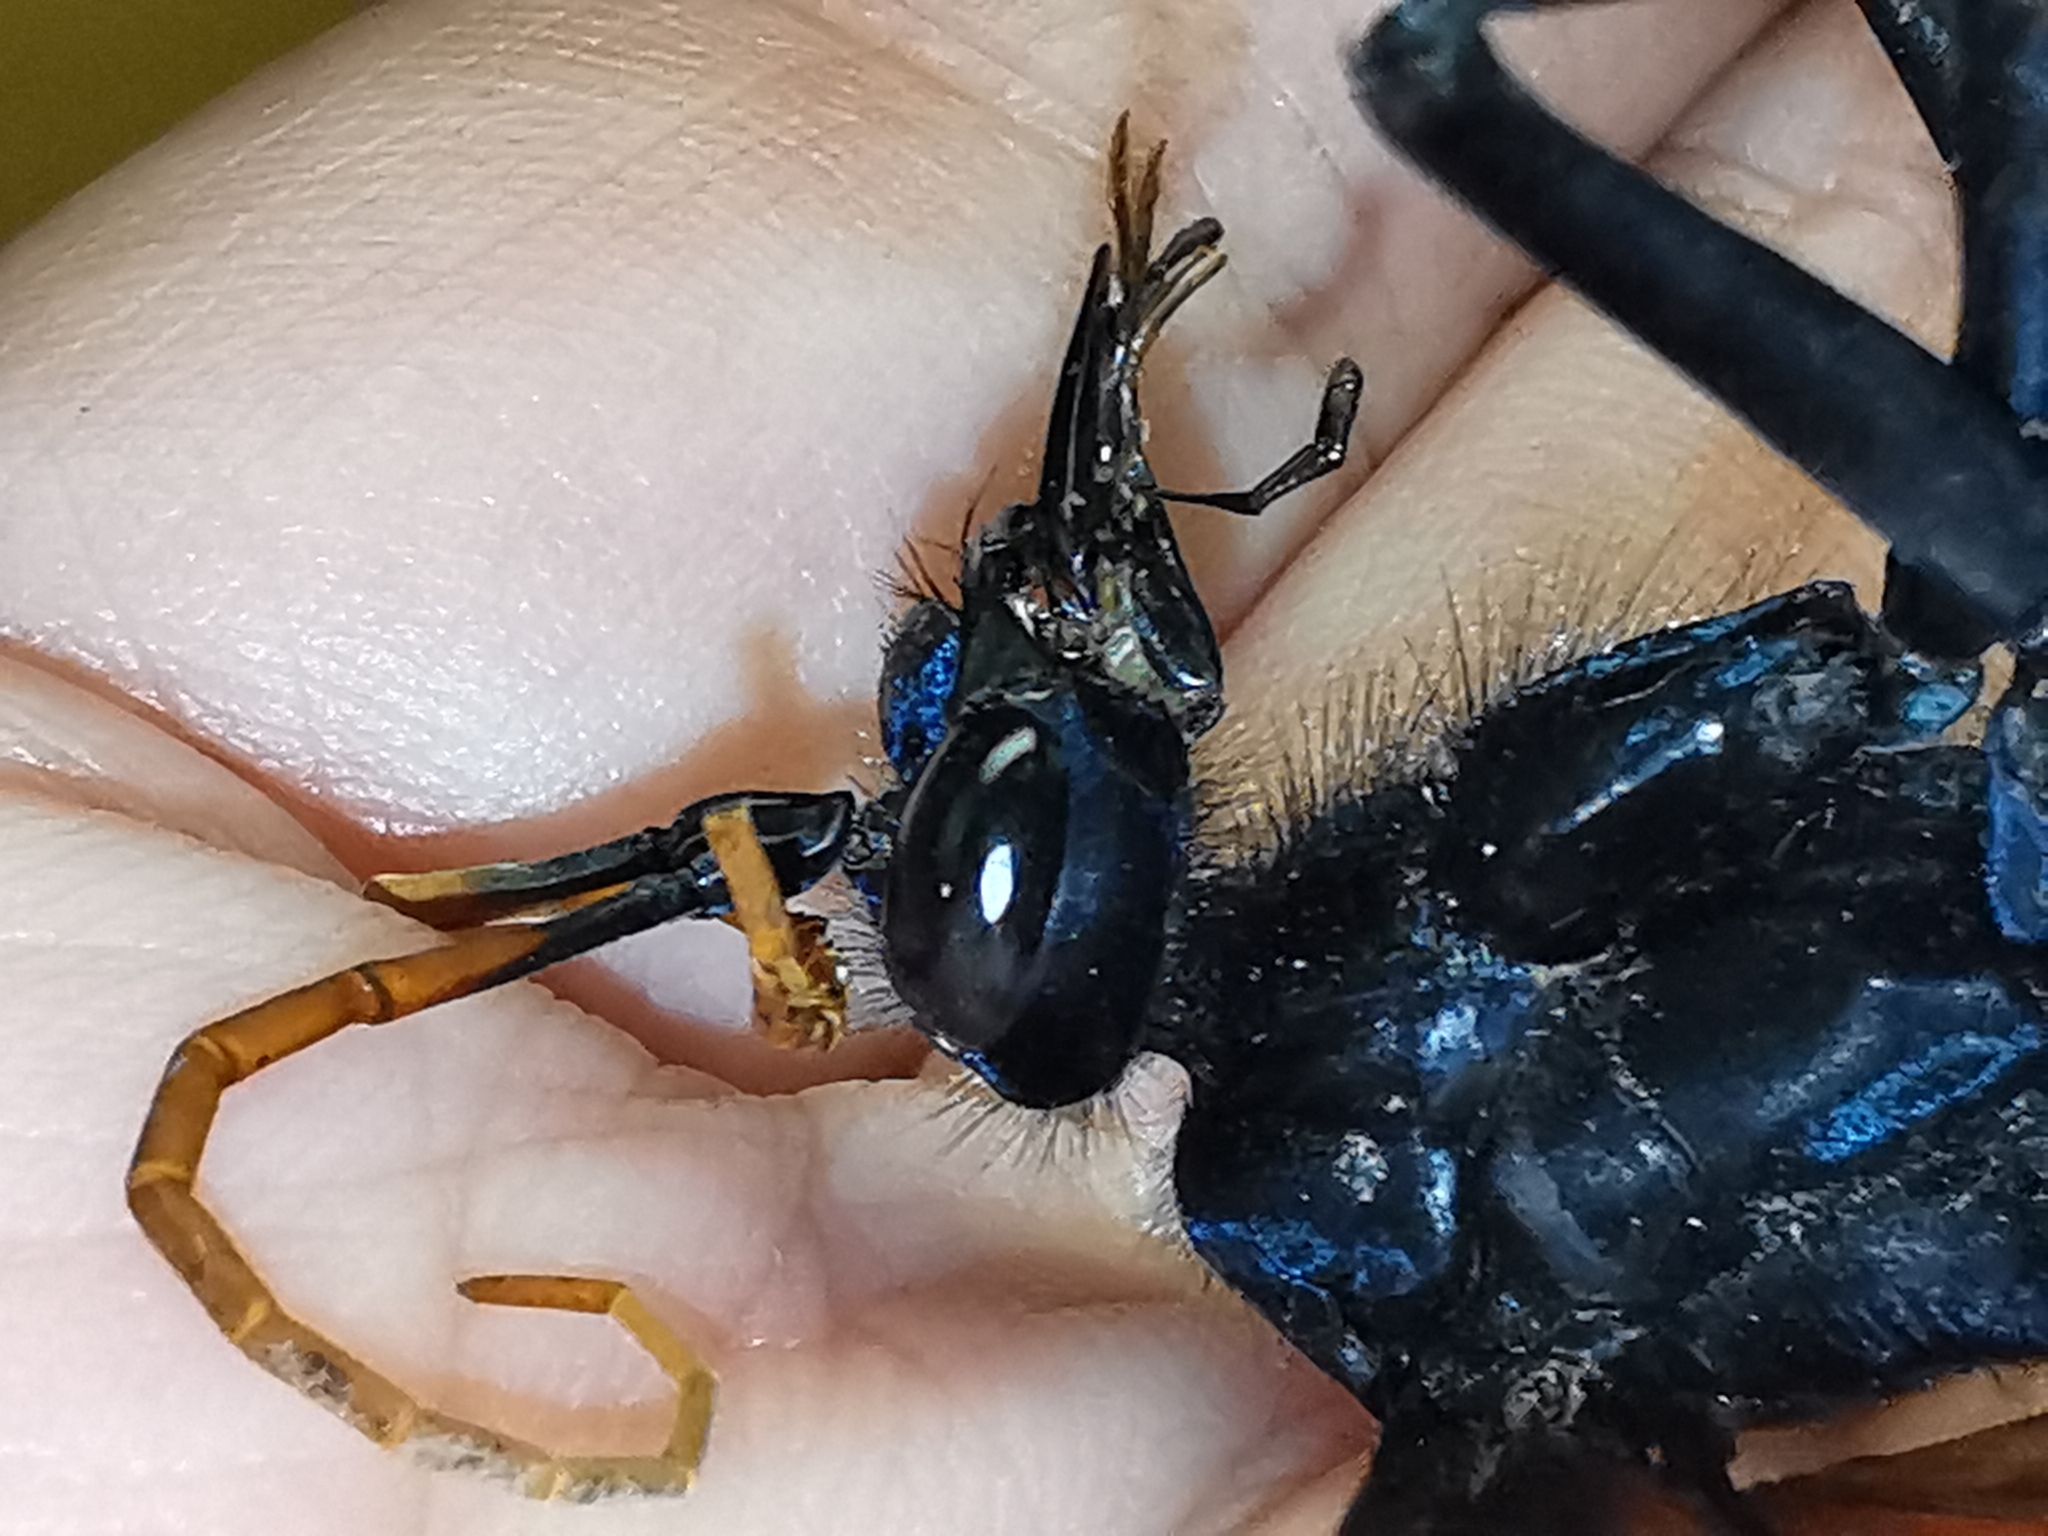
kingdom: Animalia
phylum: Arthropoda
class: Insecta
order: Hymenoptera
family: Pompilidae
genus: Pepsis
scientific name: Pepsis mildei
